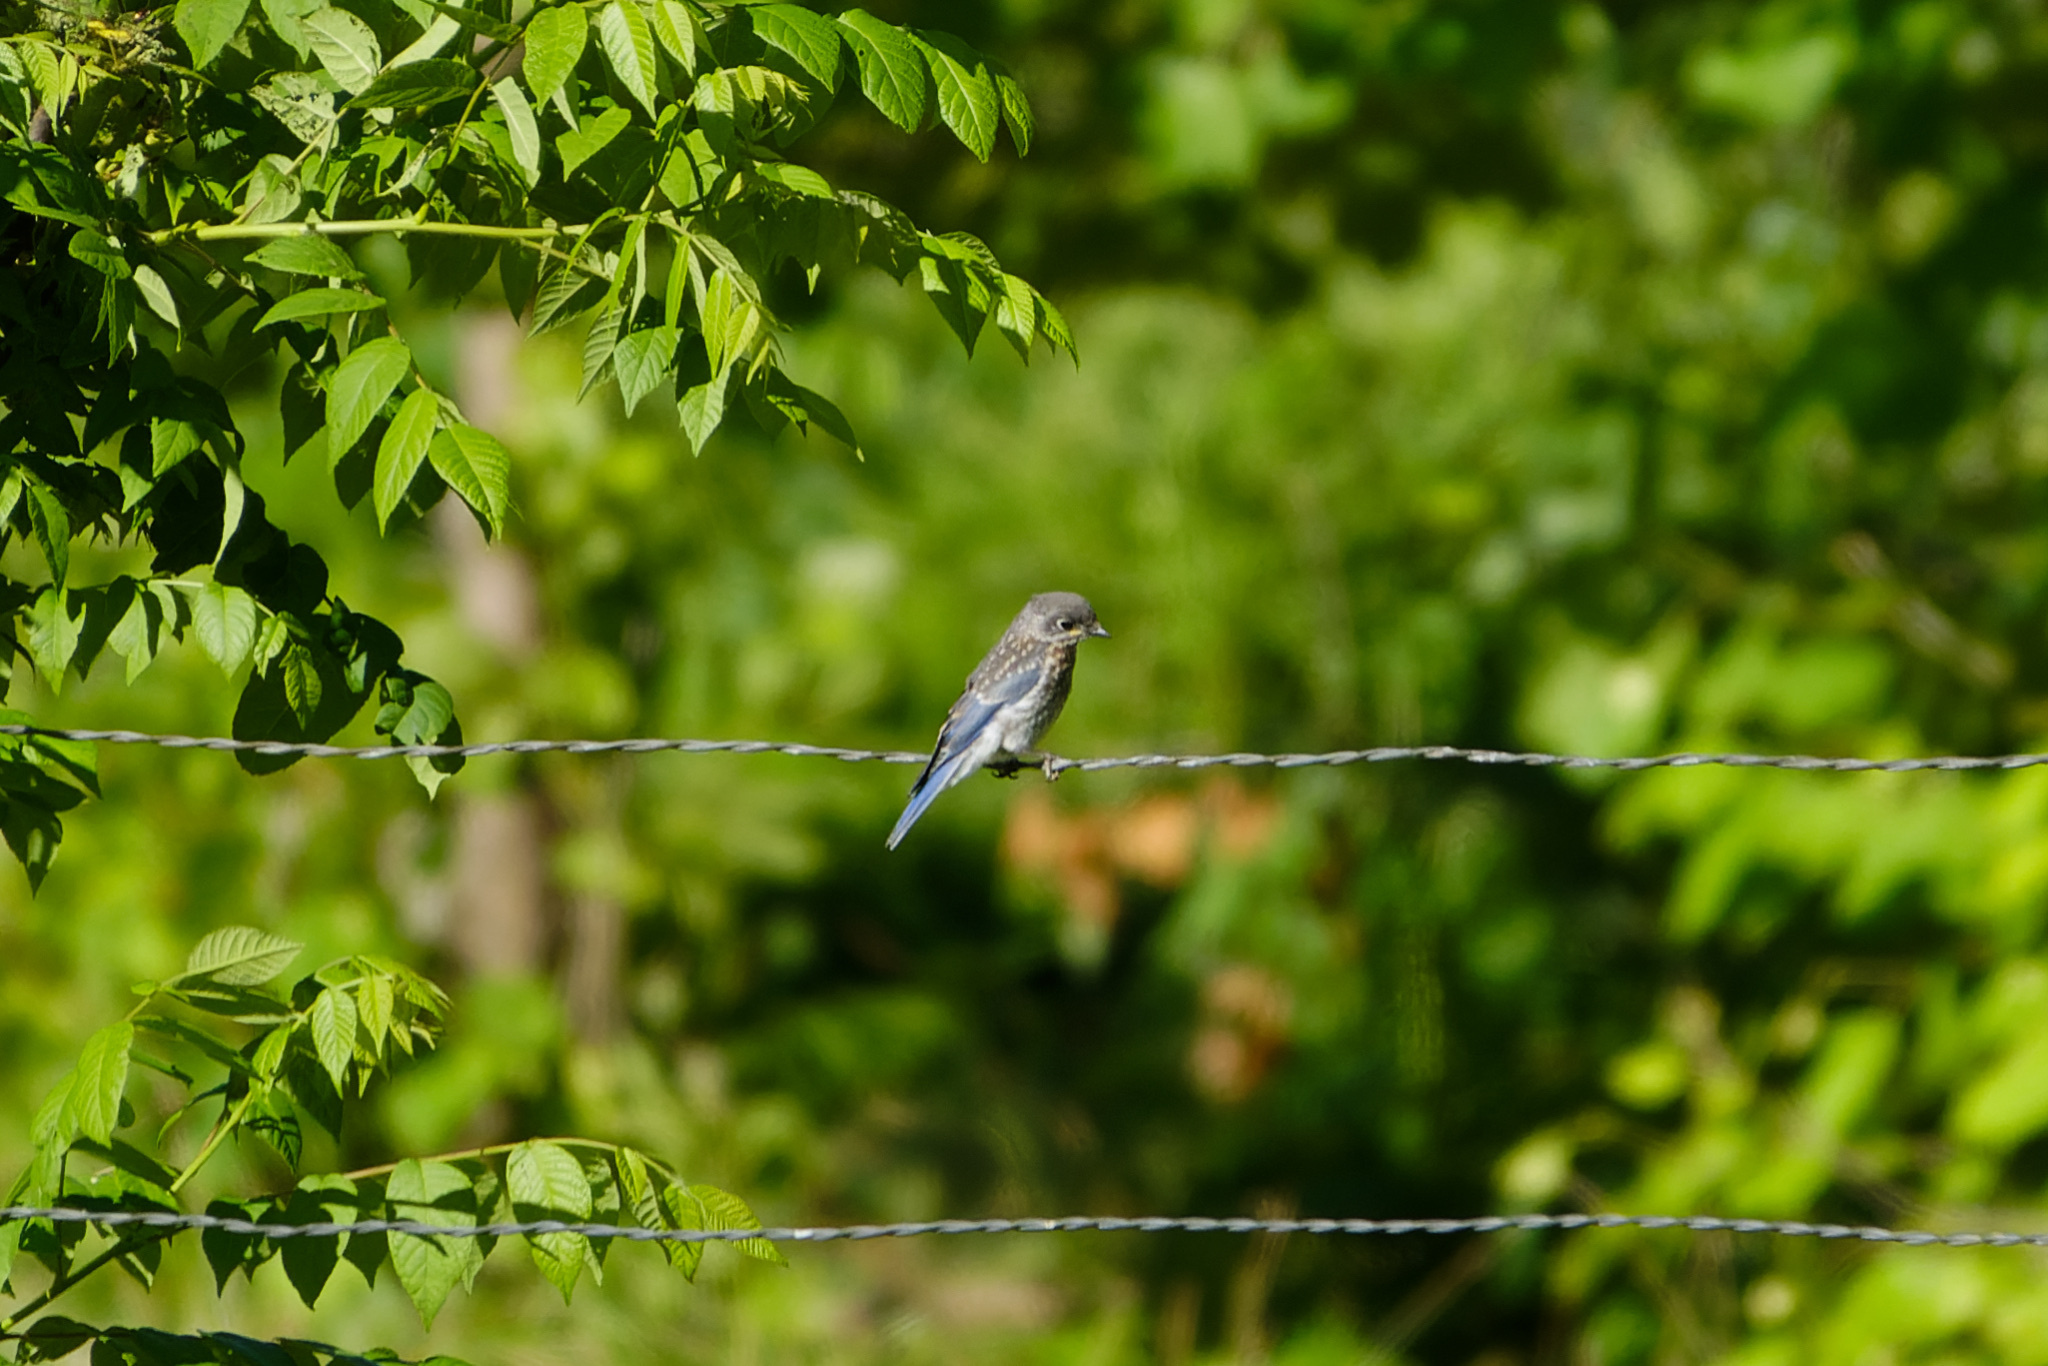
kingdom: Animalia
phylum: Chordata
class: Aves
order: Passeriformes
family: Turdidae
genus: Sialia
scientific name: Sialia sialis
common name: Eastern bluebird
